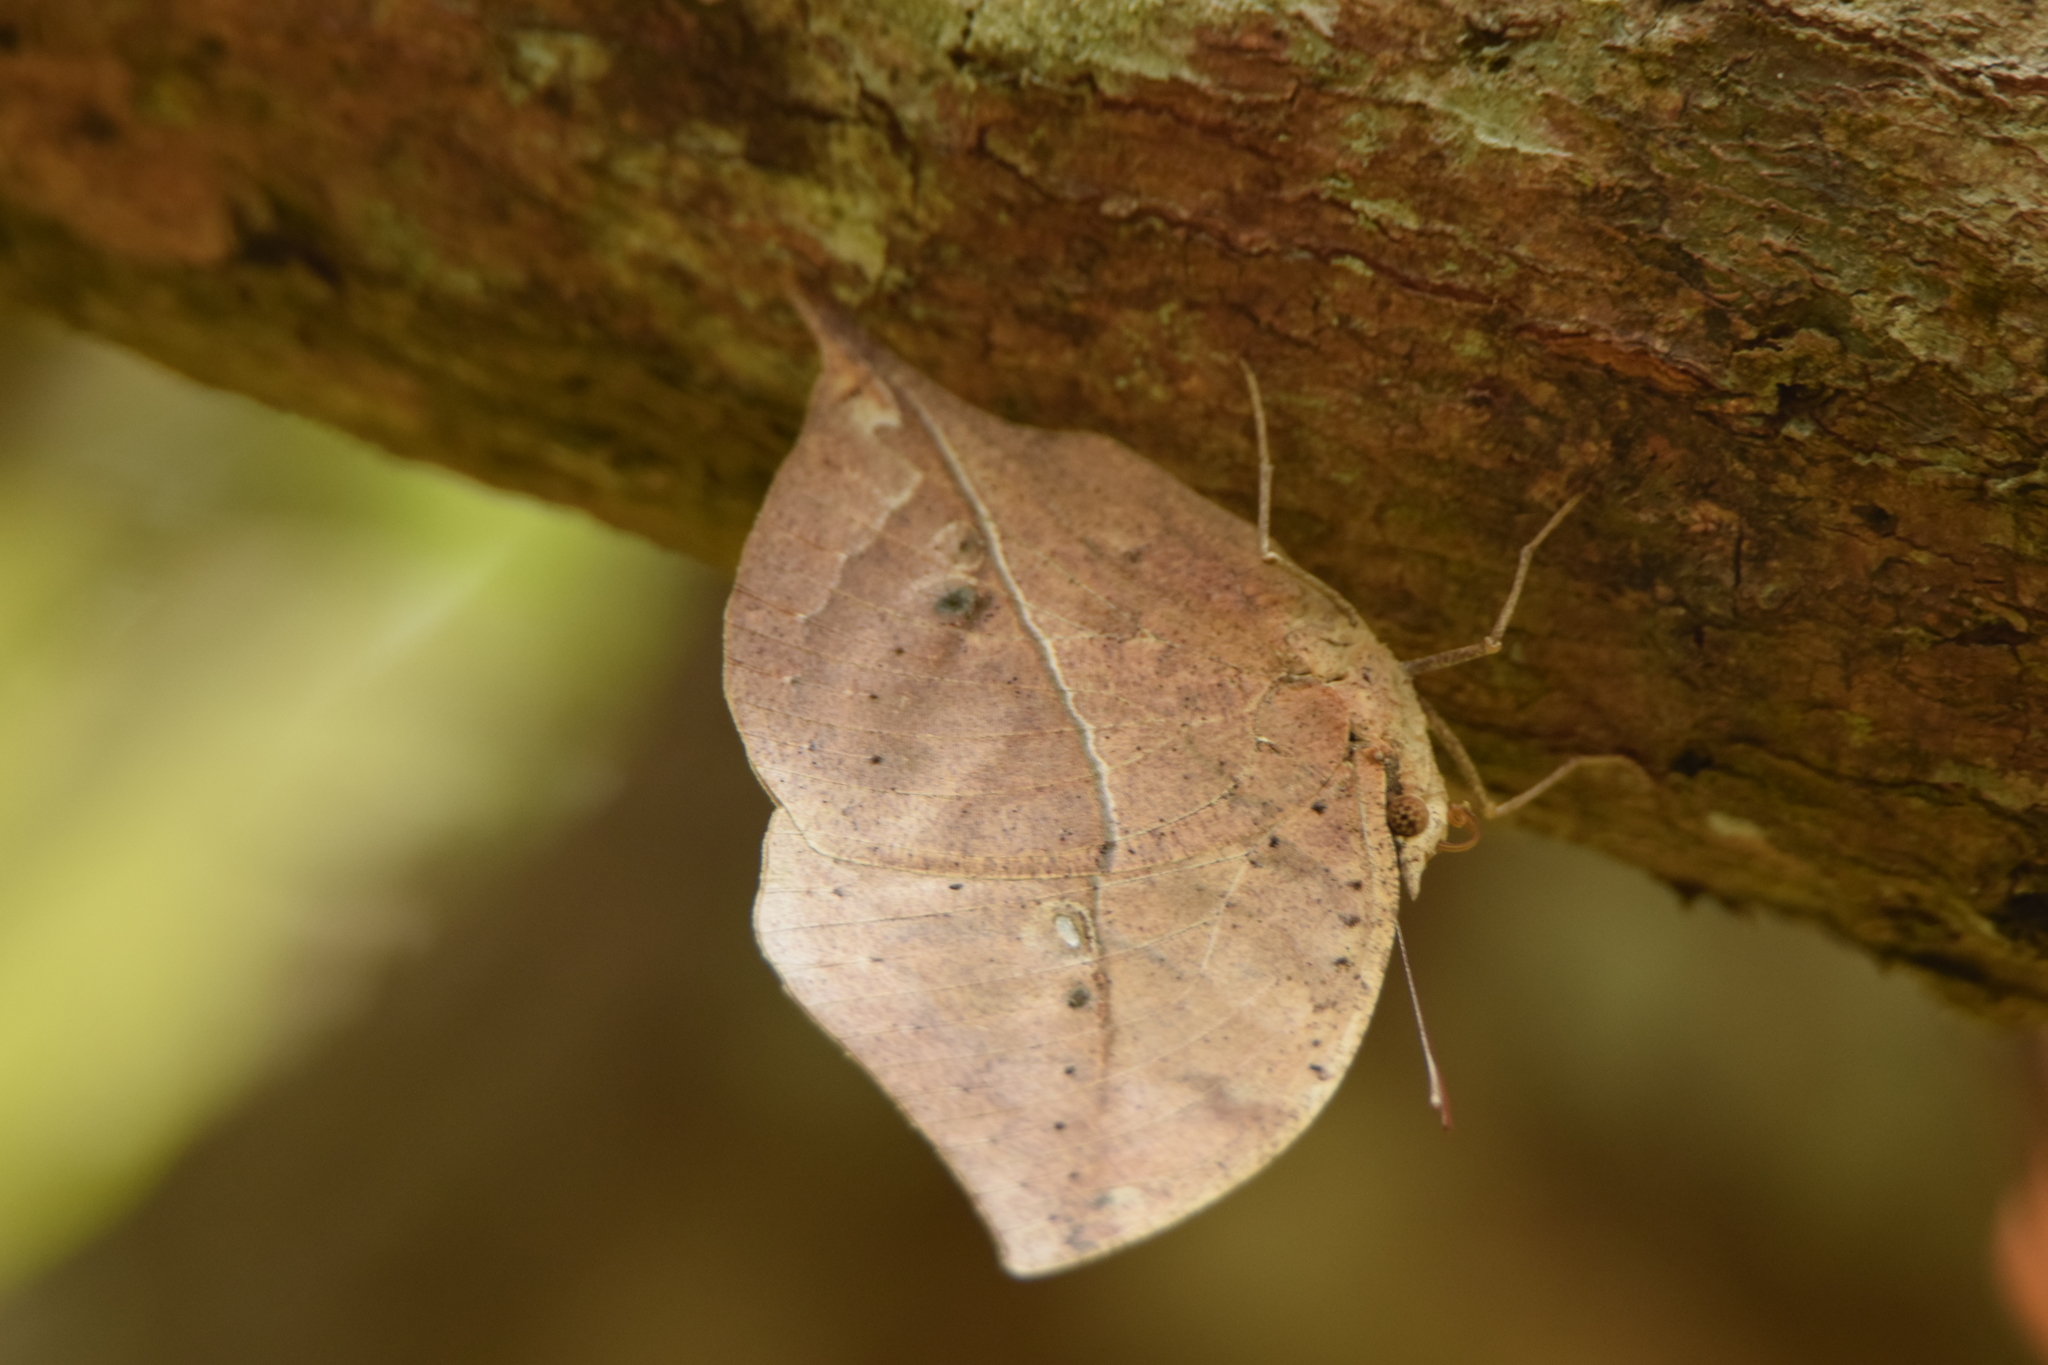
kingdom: Animalia
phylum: Arthropoda
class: Insecta
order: Lepidoptera
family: Nymphalidae
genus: Kallima
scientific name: Kallima inachus
